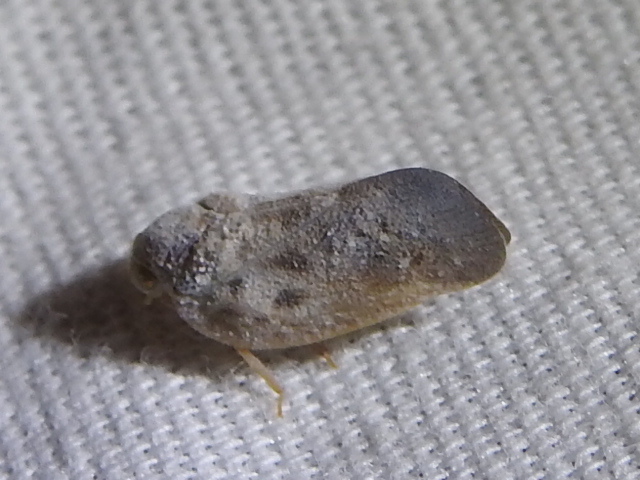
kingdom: Animalia
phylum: Arthropoda
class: Insecta
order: Hemiptera
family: Flatidae
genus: Metcalfa
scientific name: Metcalfa pruinosa
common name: Citrus flatid planthopper
